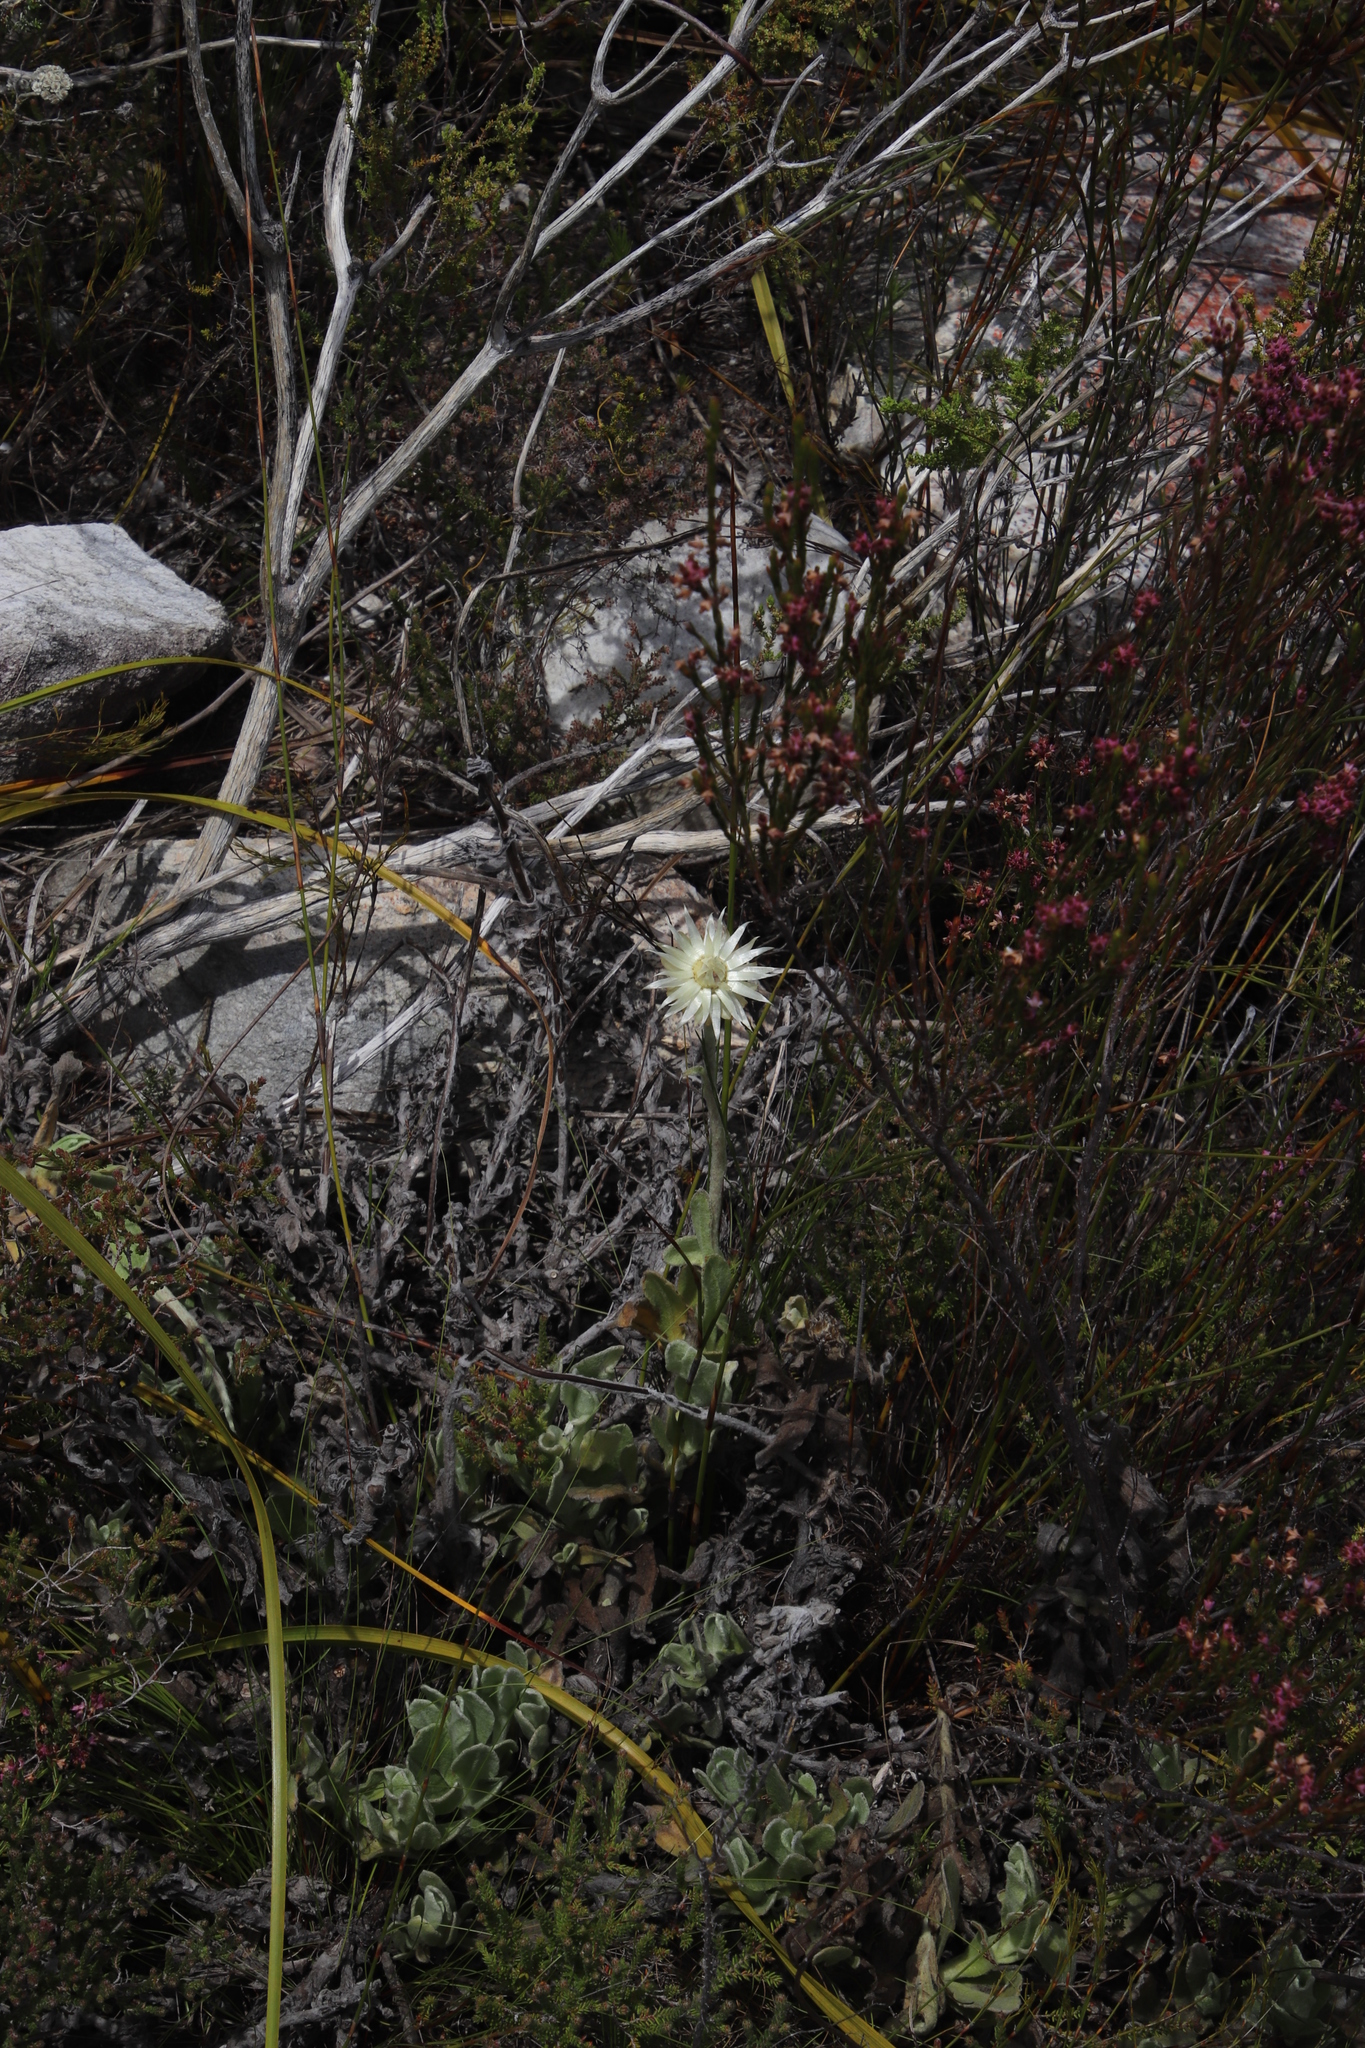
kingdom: Plantae
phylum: Tracheophyta
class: Magnoliopsida
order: Asterales
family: Asteraceae
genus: Syncarpha
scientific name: Syncarpha speciosissima
